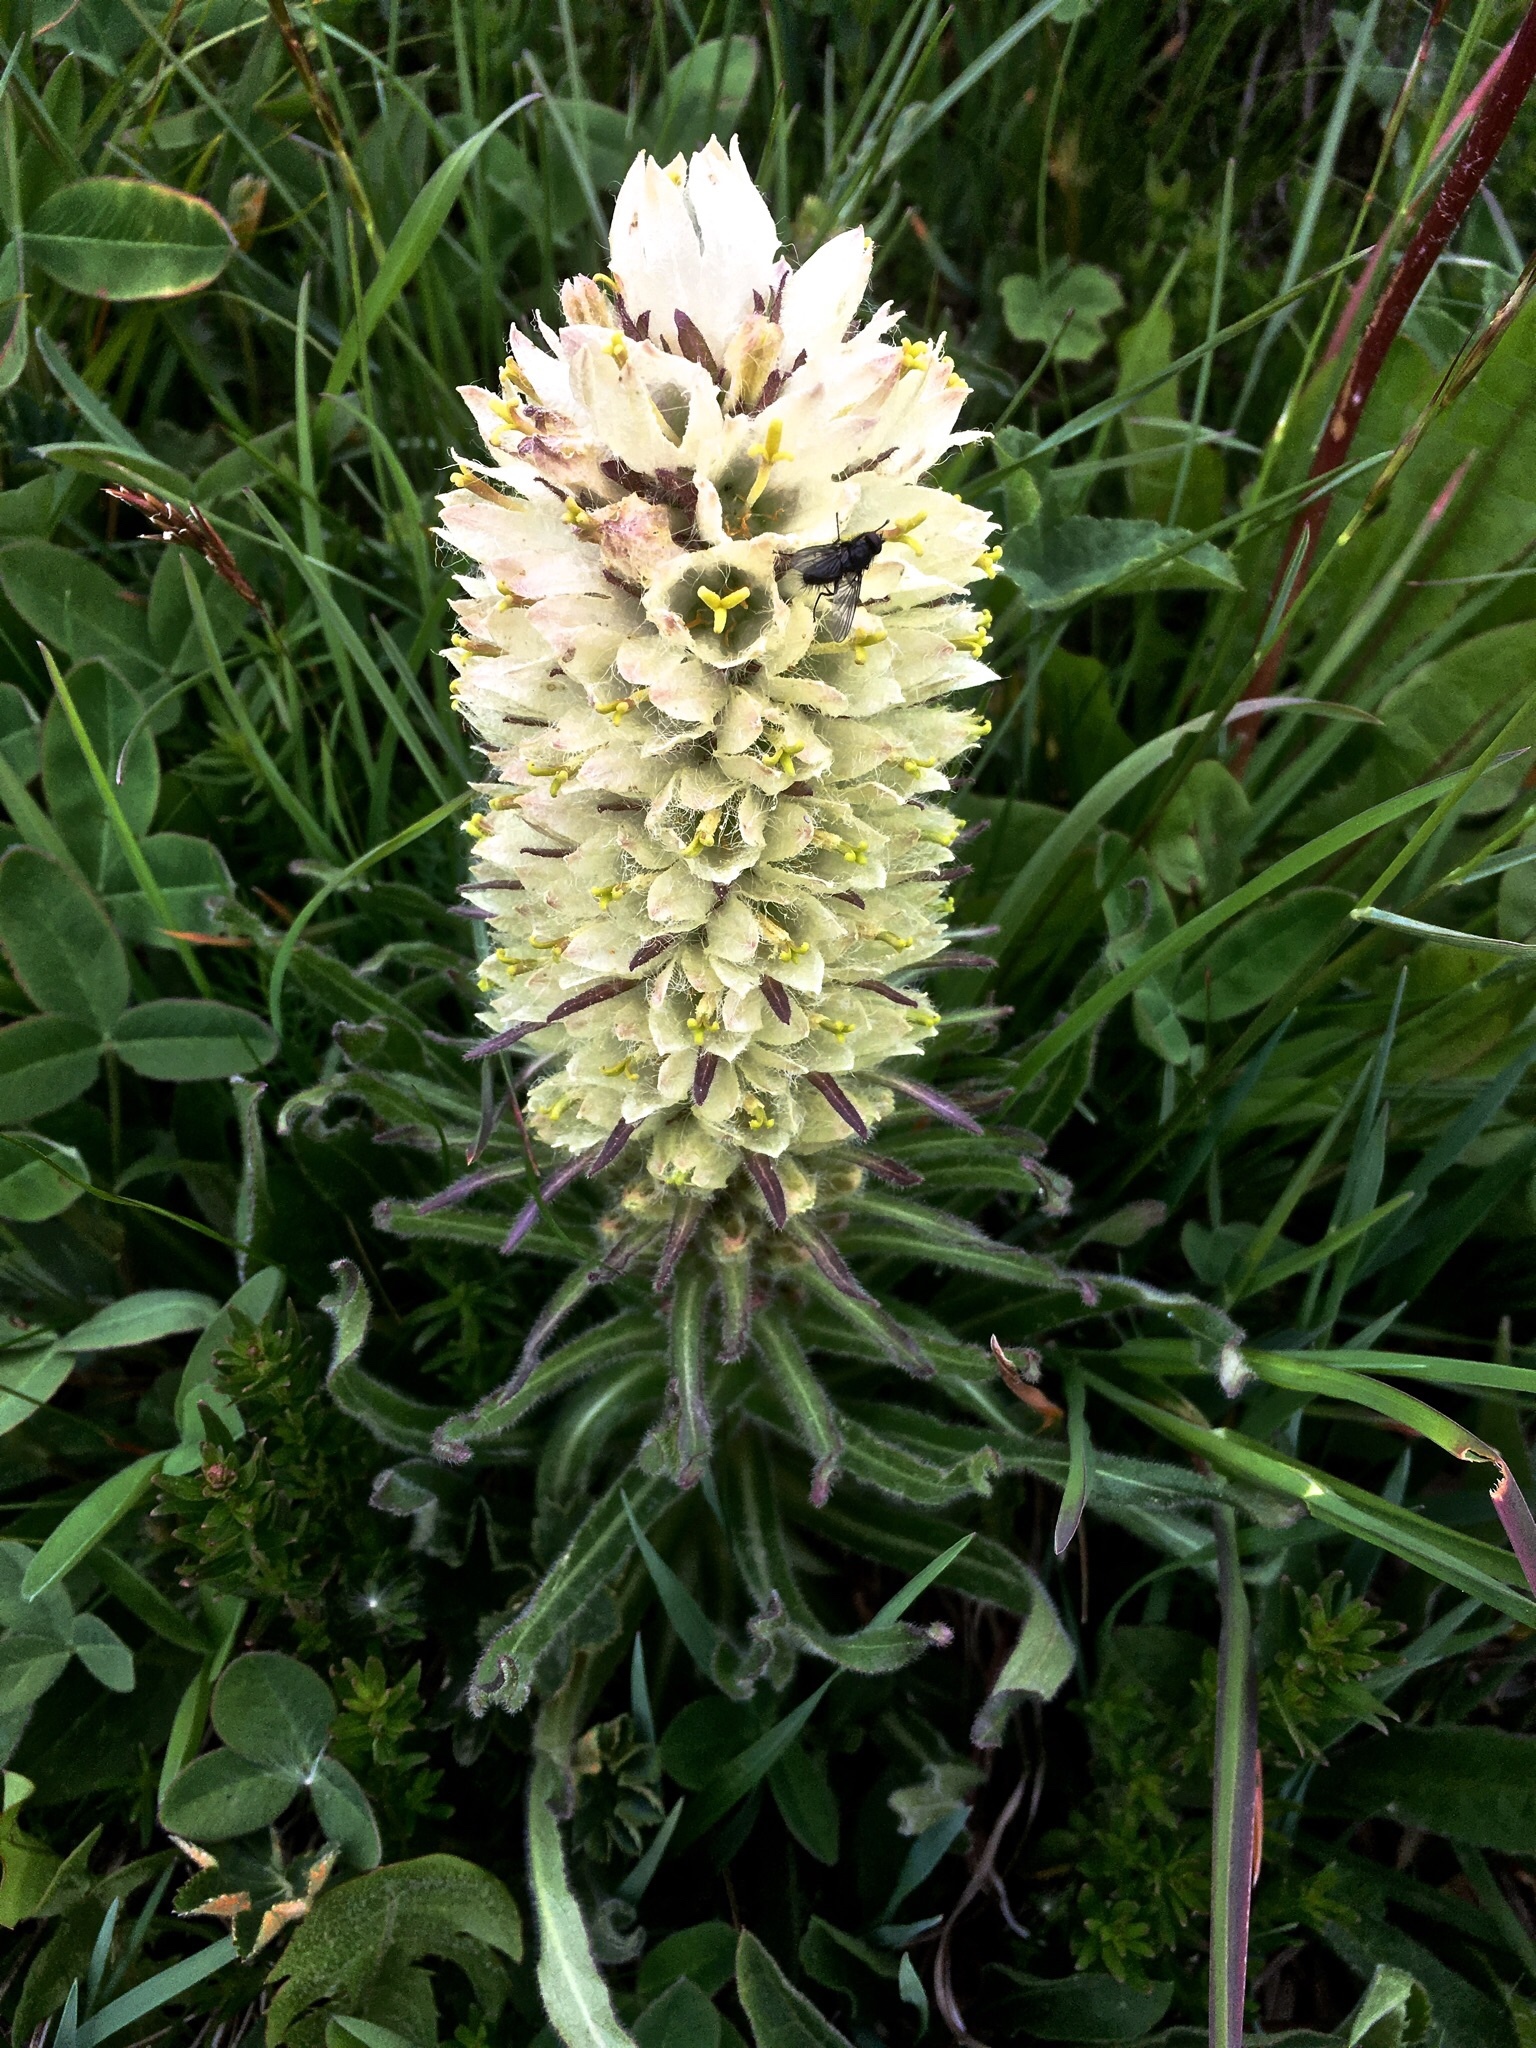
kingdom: Plantae
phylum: Tracheophyta
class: Magnoliopsida
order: Asterales
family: Campanulaceae
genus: Campanula
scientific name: Campanula thyrsoides
